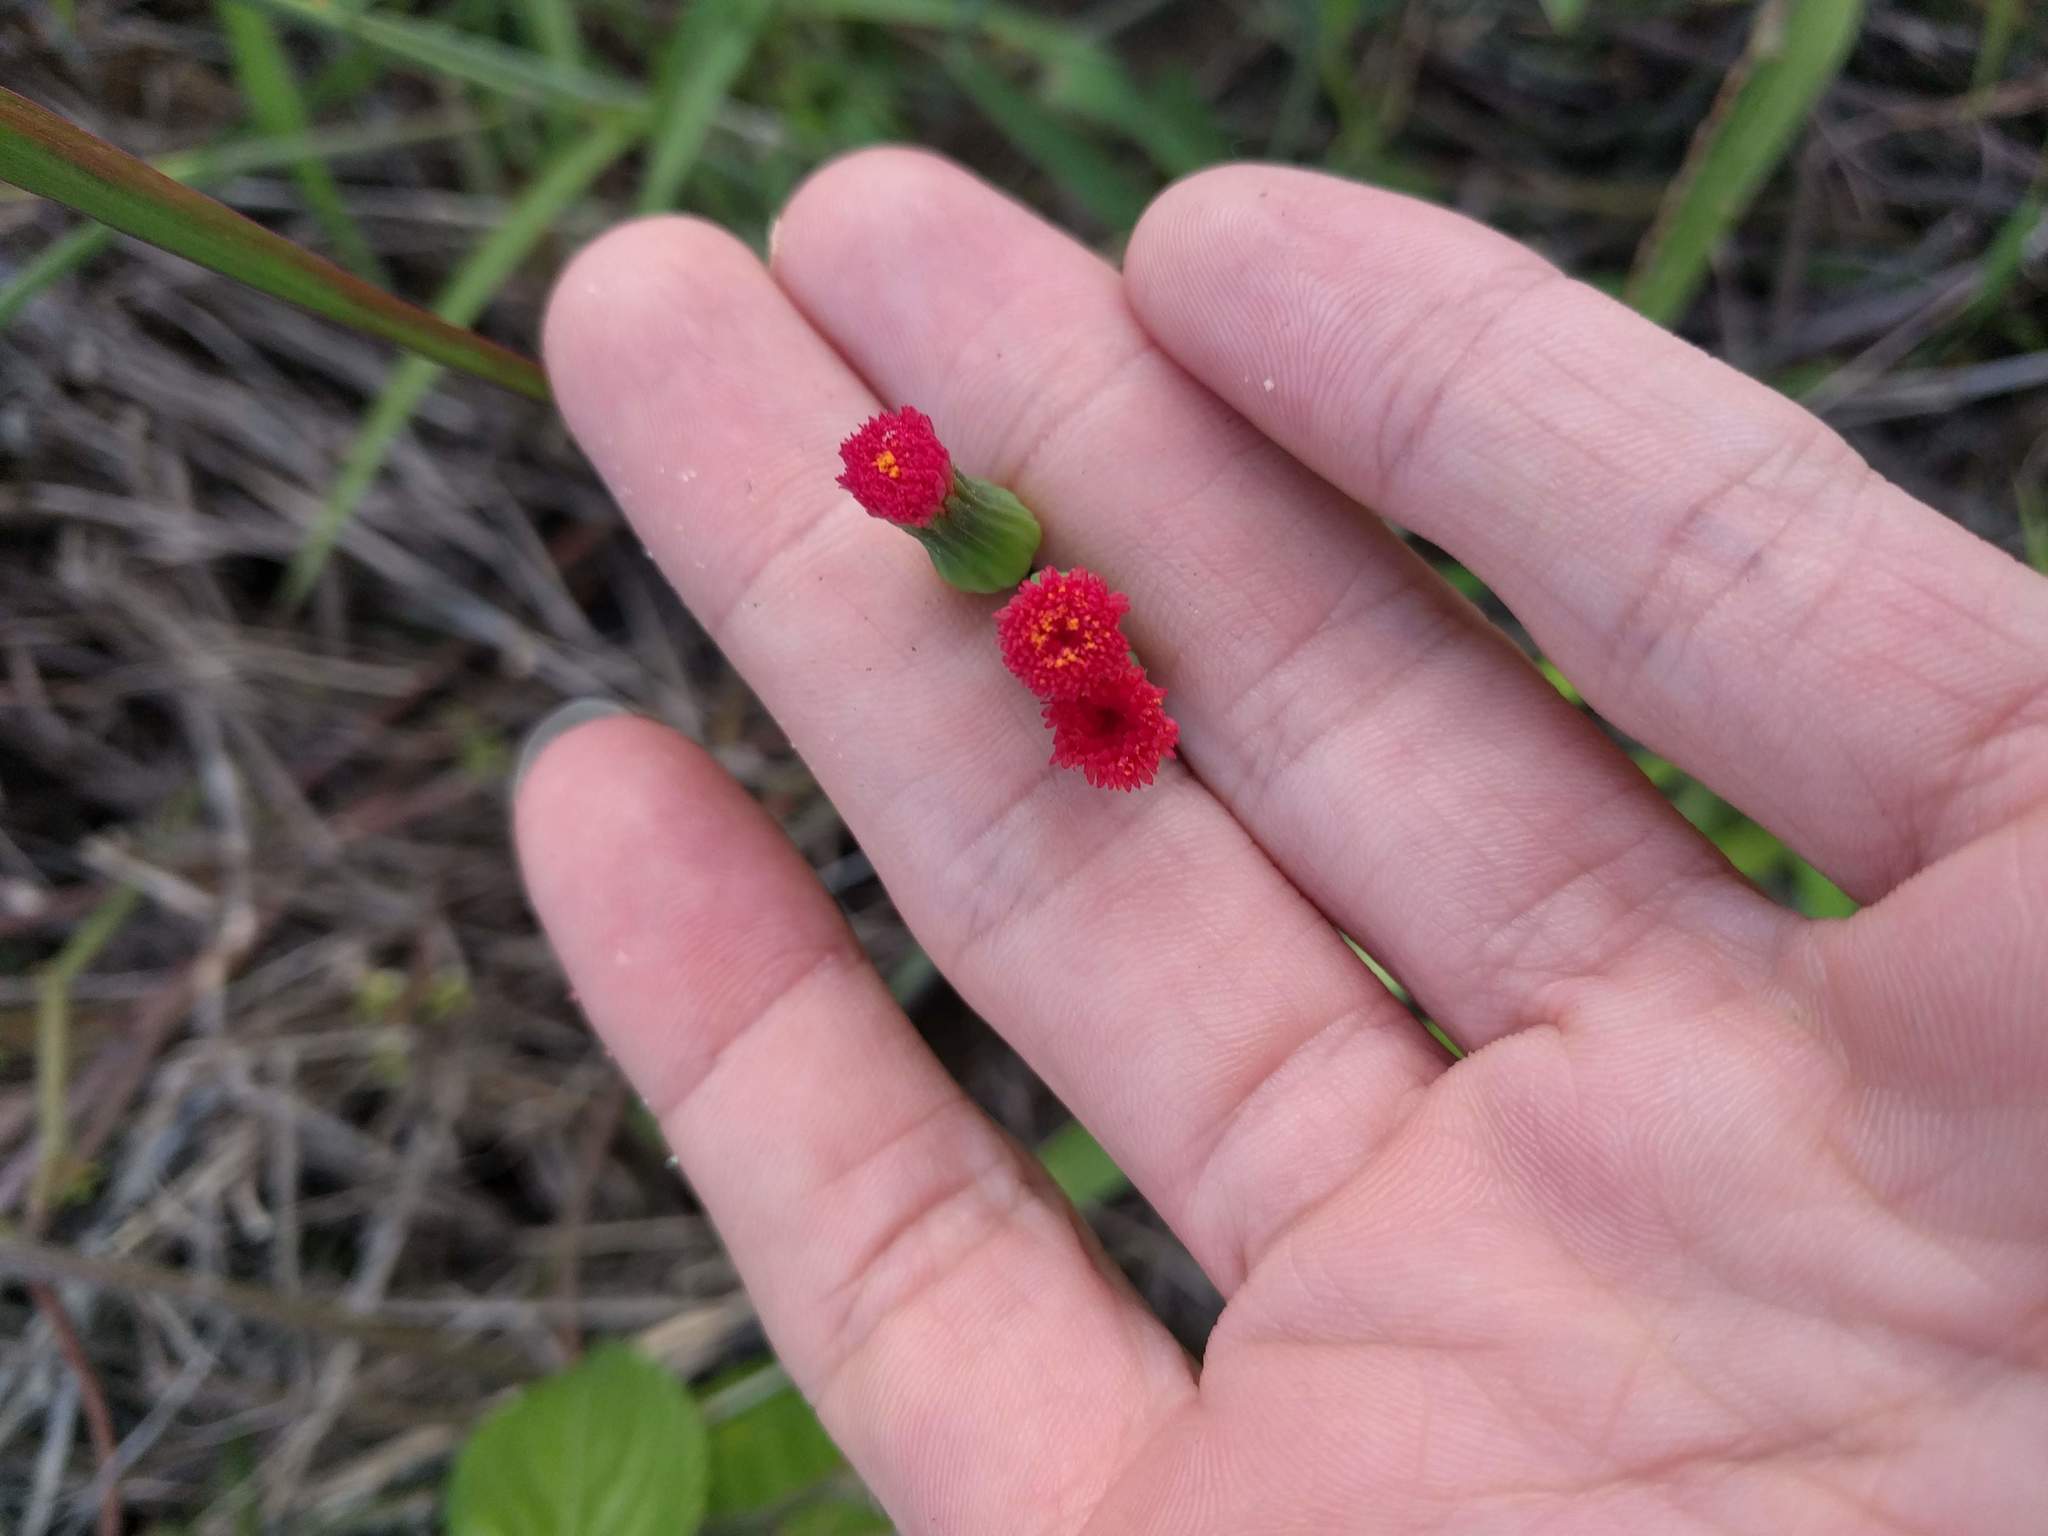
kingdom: Plantae
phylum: Tracheophyta
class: Magnoliopsida
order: Asterales
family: Asteraceae
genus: Emilia
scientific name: Emilia fosbergii
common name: Florida tasselflower
